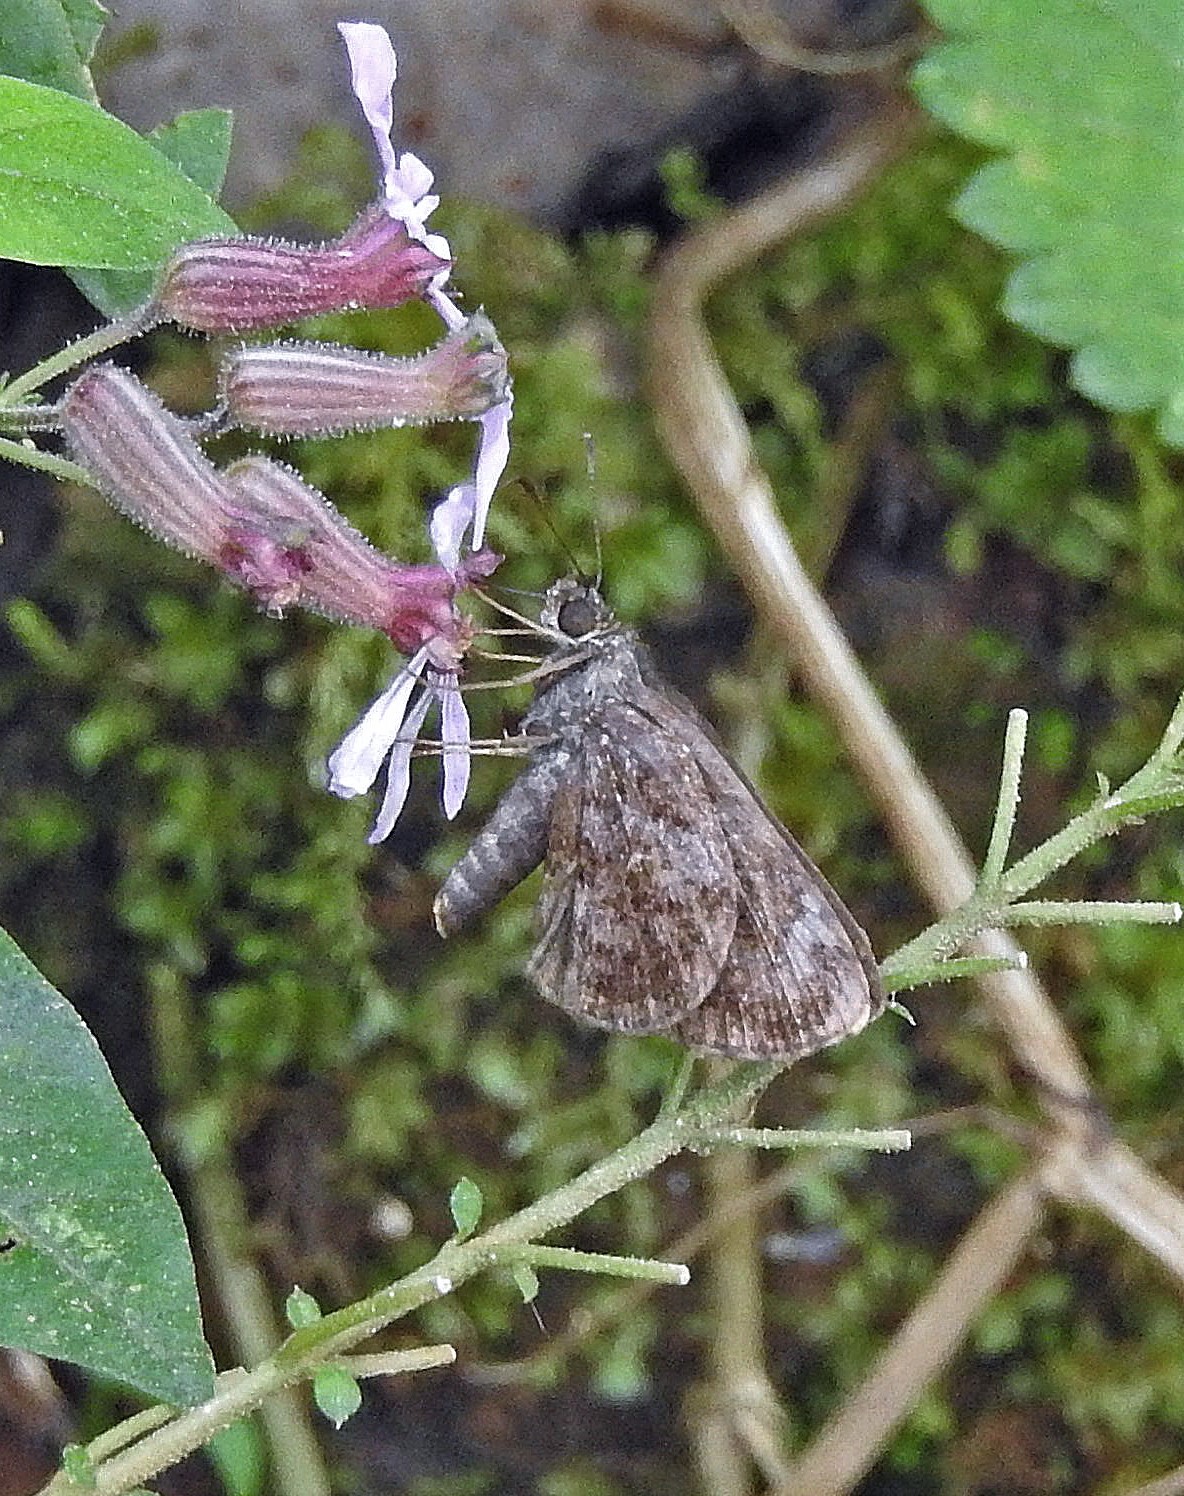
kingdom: Animalia
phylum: Arthropoda
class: Insecta
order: Lepidoptera
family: Hesperiidae
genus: Lucida
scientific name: Lucida lucia
